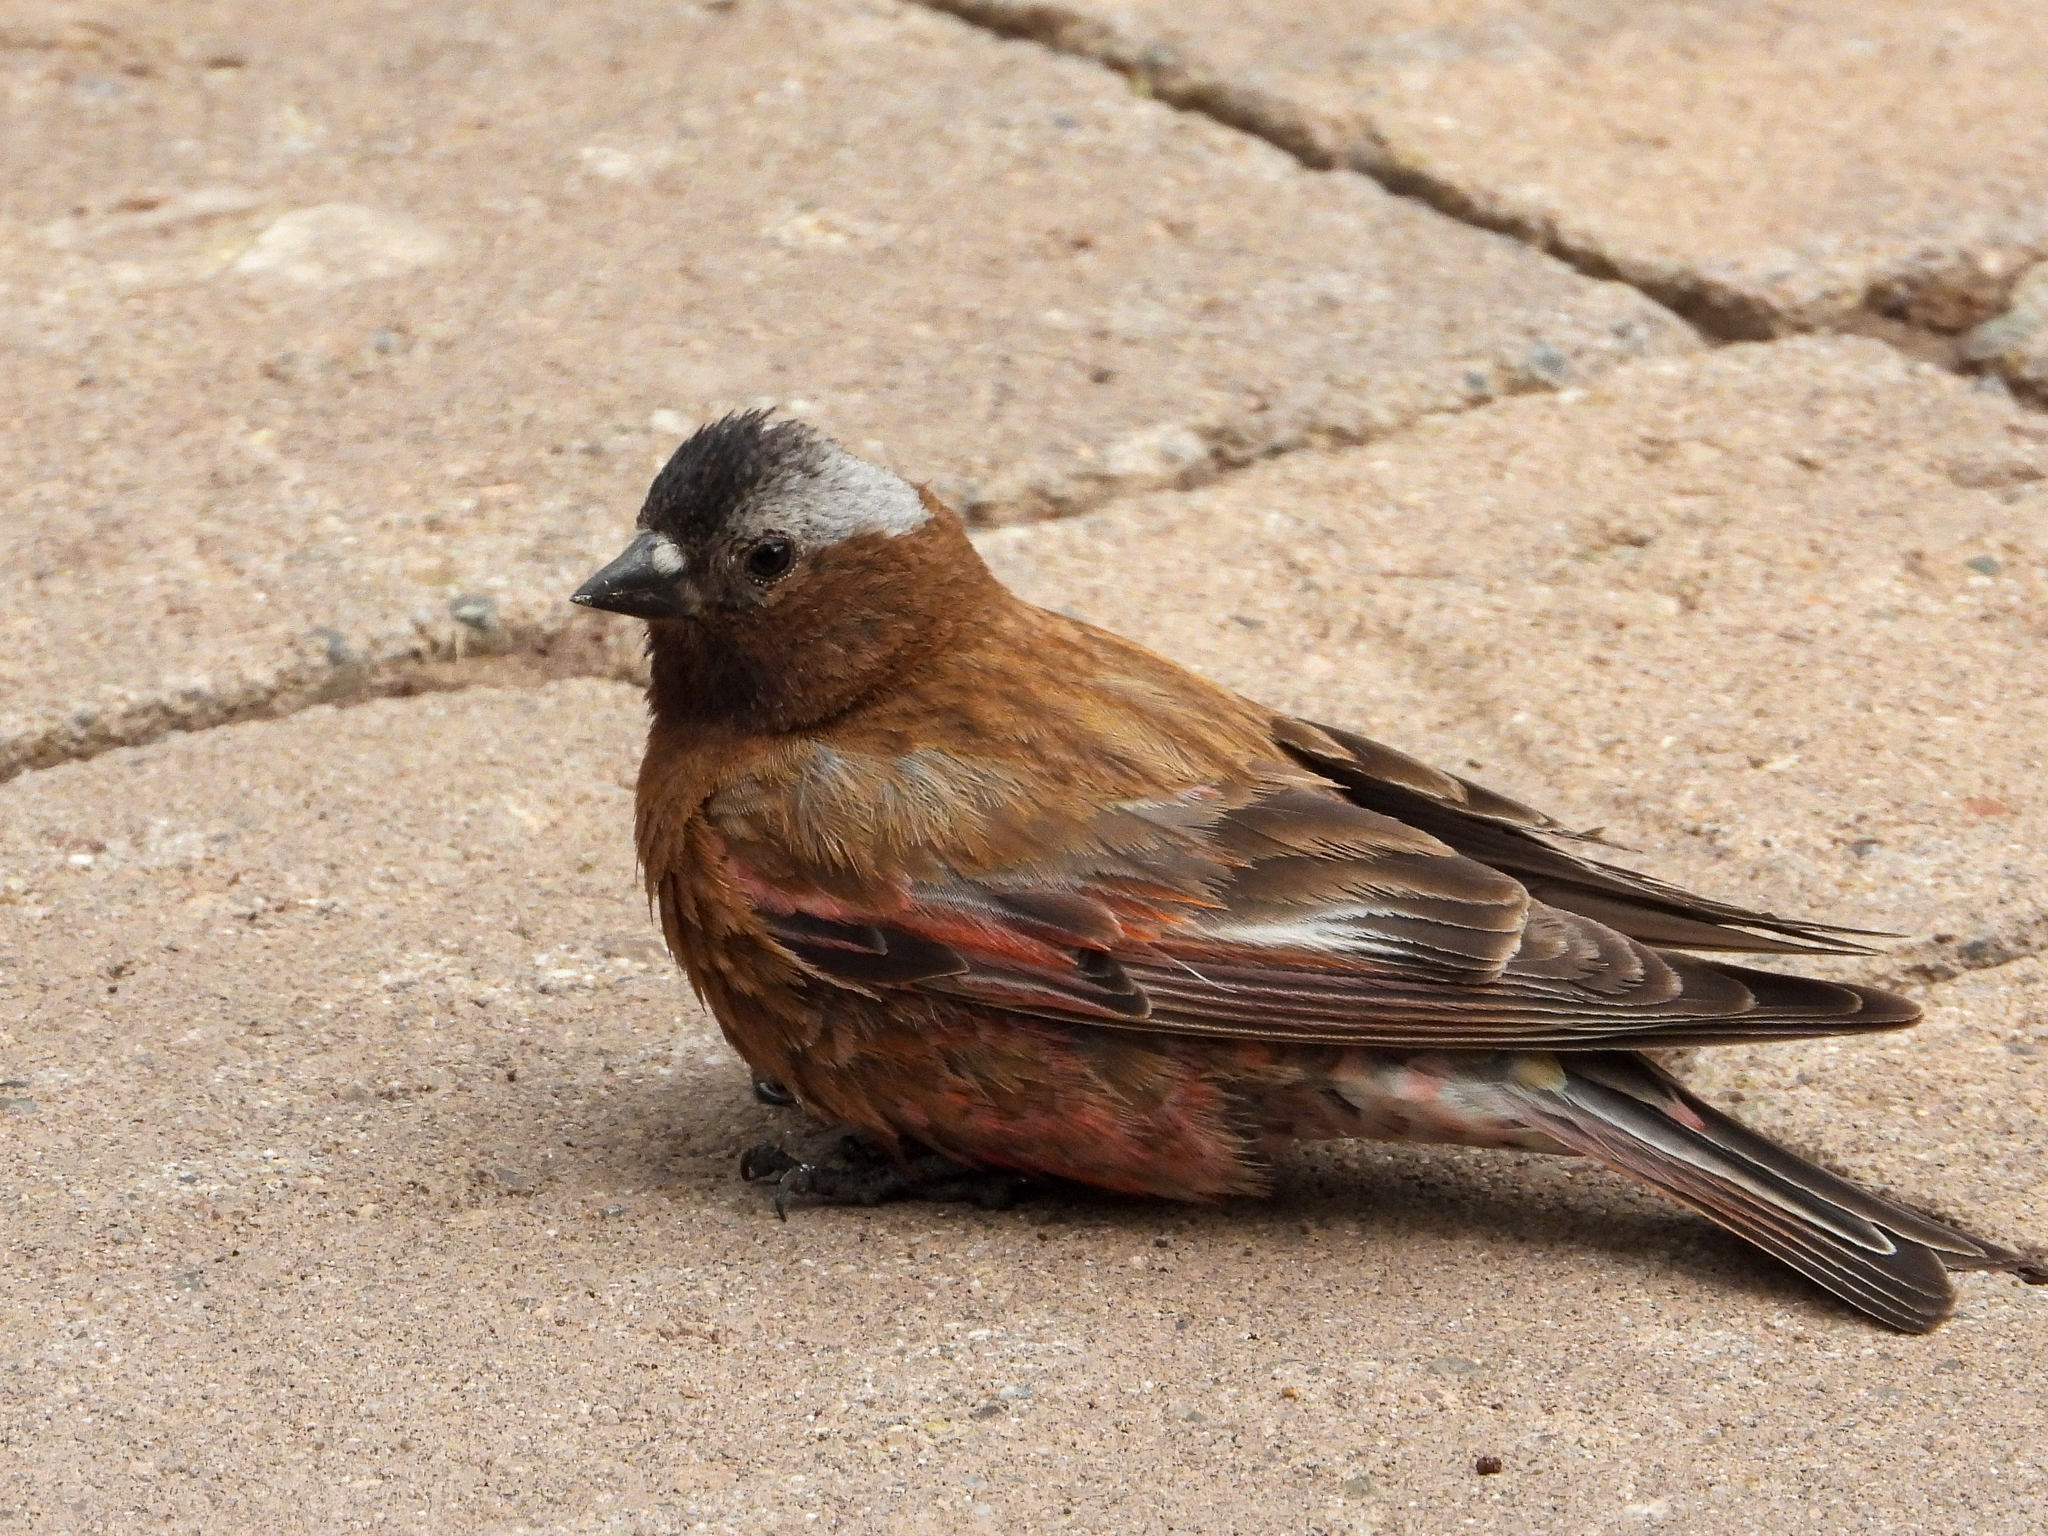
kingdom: Animalia
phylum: Chordata
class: Aves
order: Passeriformes
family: Fringillidae
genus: Leucosticte
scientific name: Leucosticte tephrocotis
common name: Gray-crowned rosy-finch
